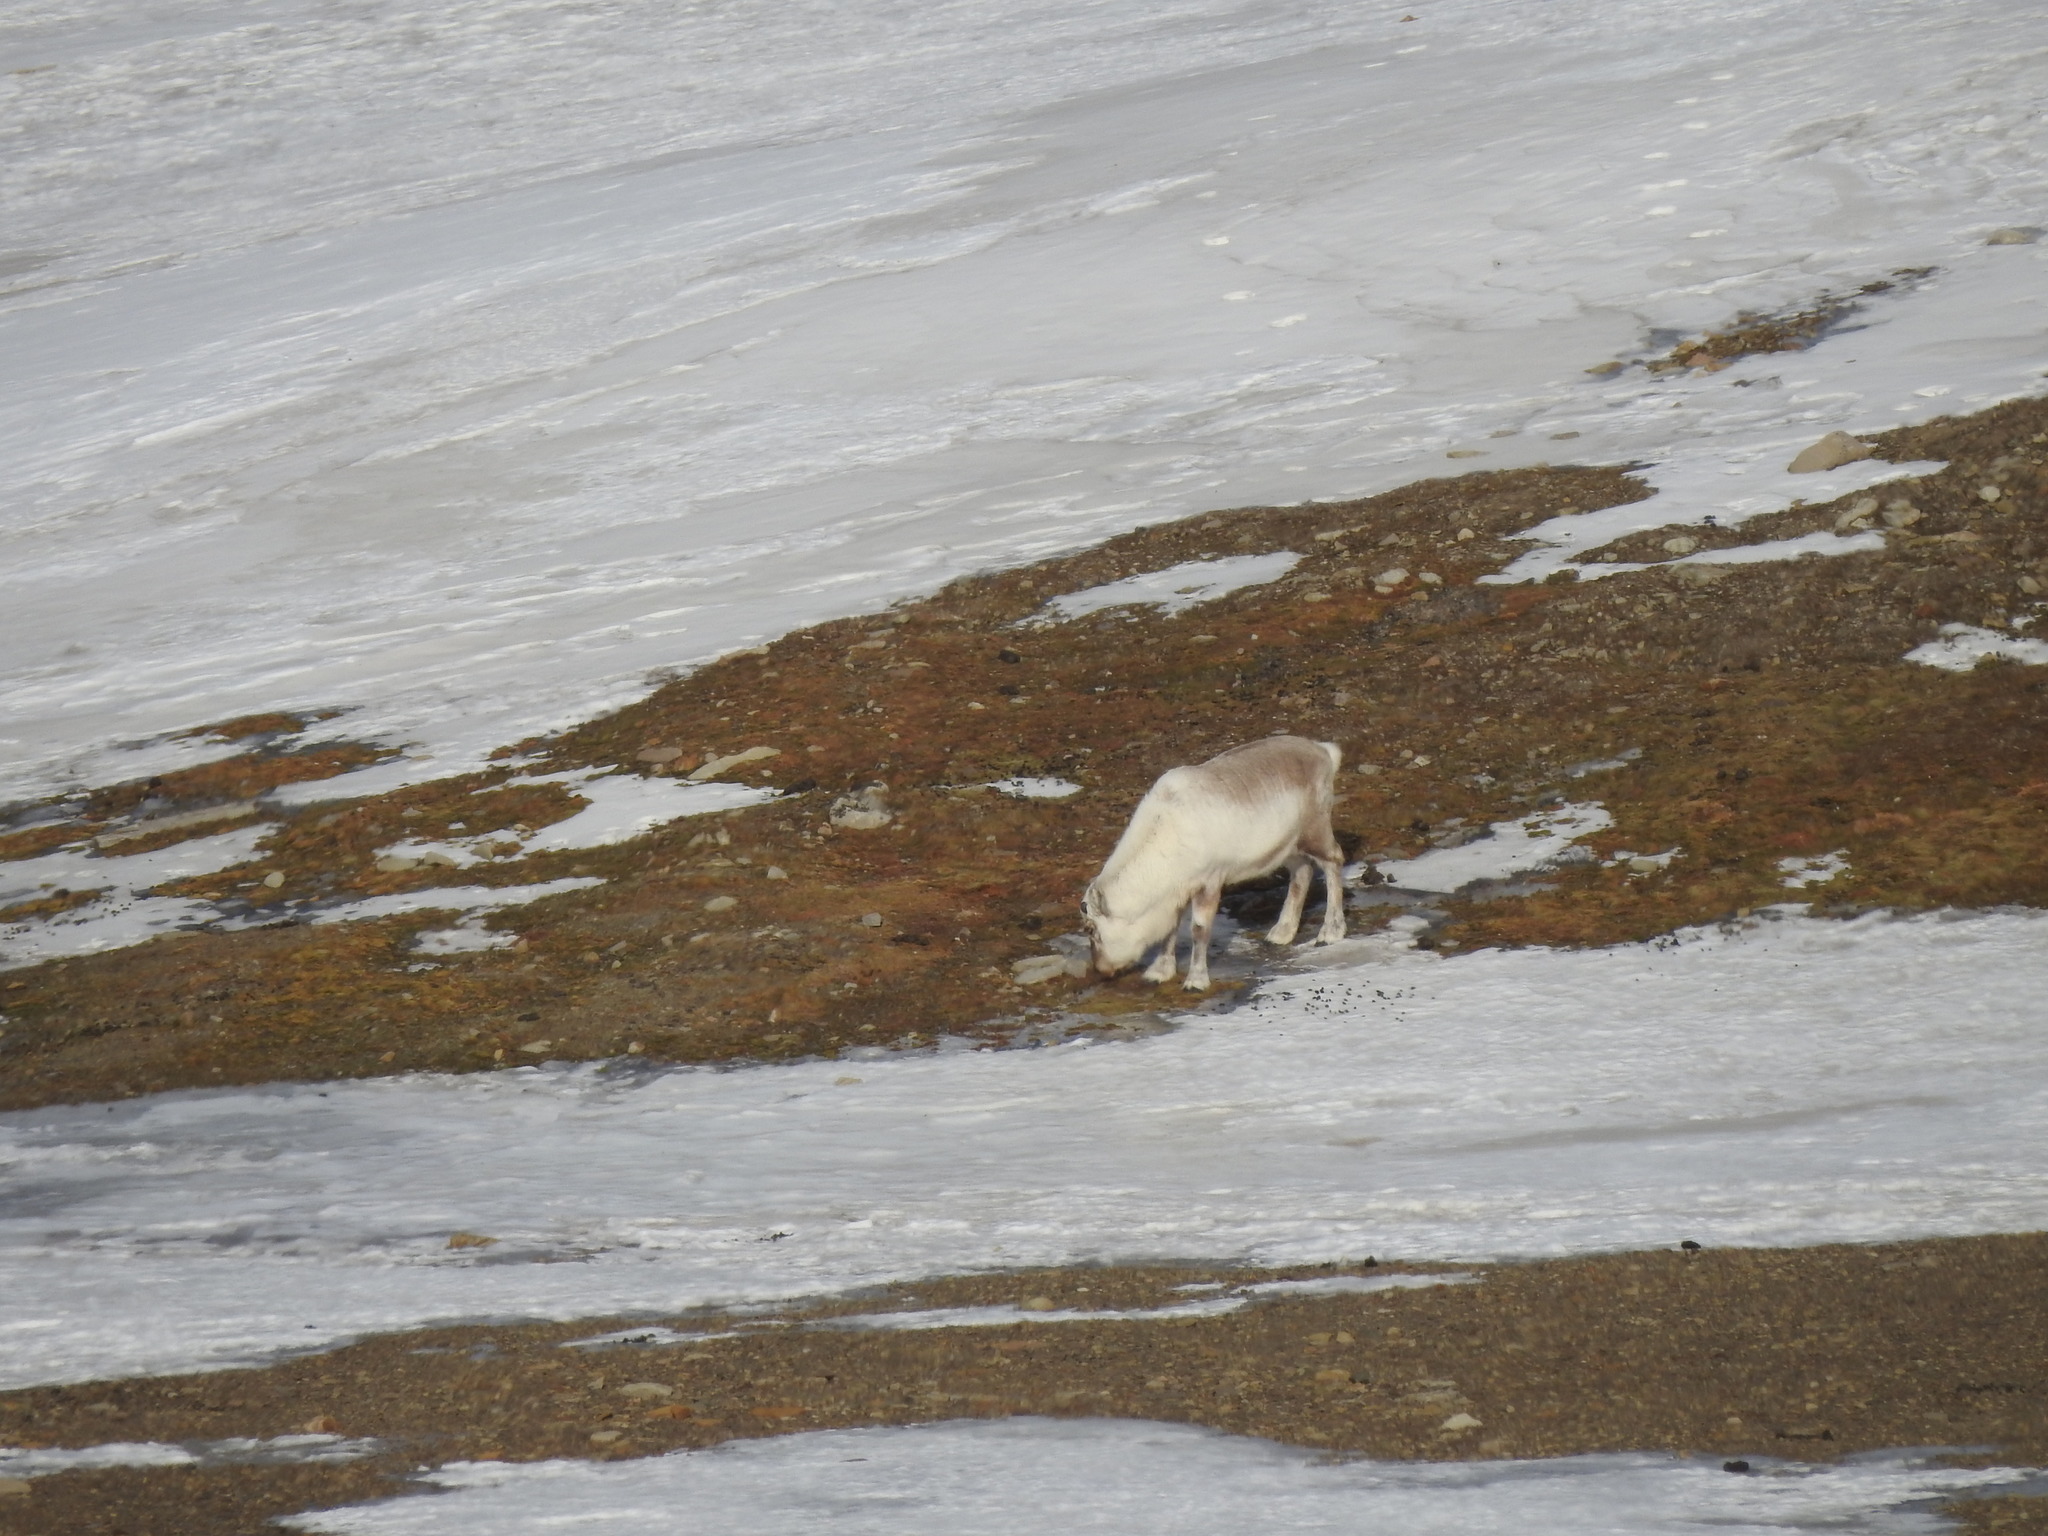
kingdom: Animalia
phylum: Chordata
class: Mammalia
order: Artiodactyla
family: Cervidae
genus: Rangifer
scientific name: Rangifer tarandus
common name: Reindeer
